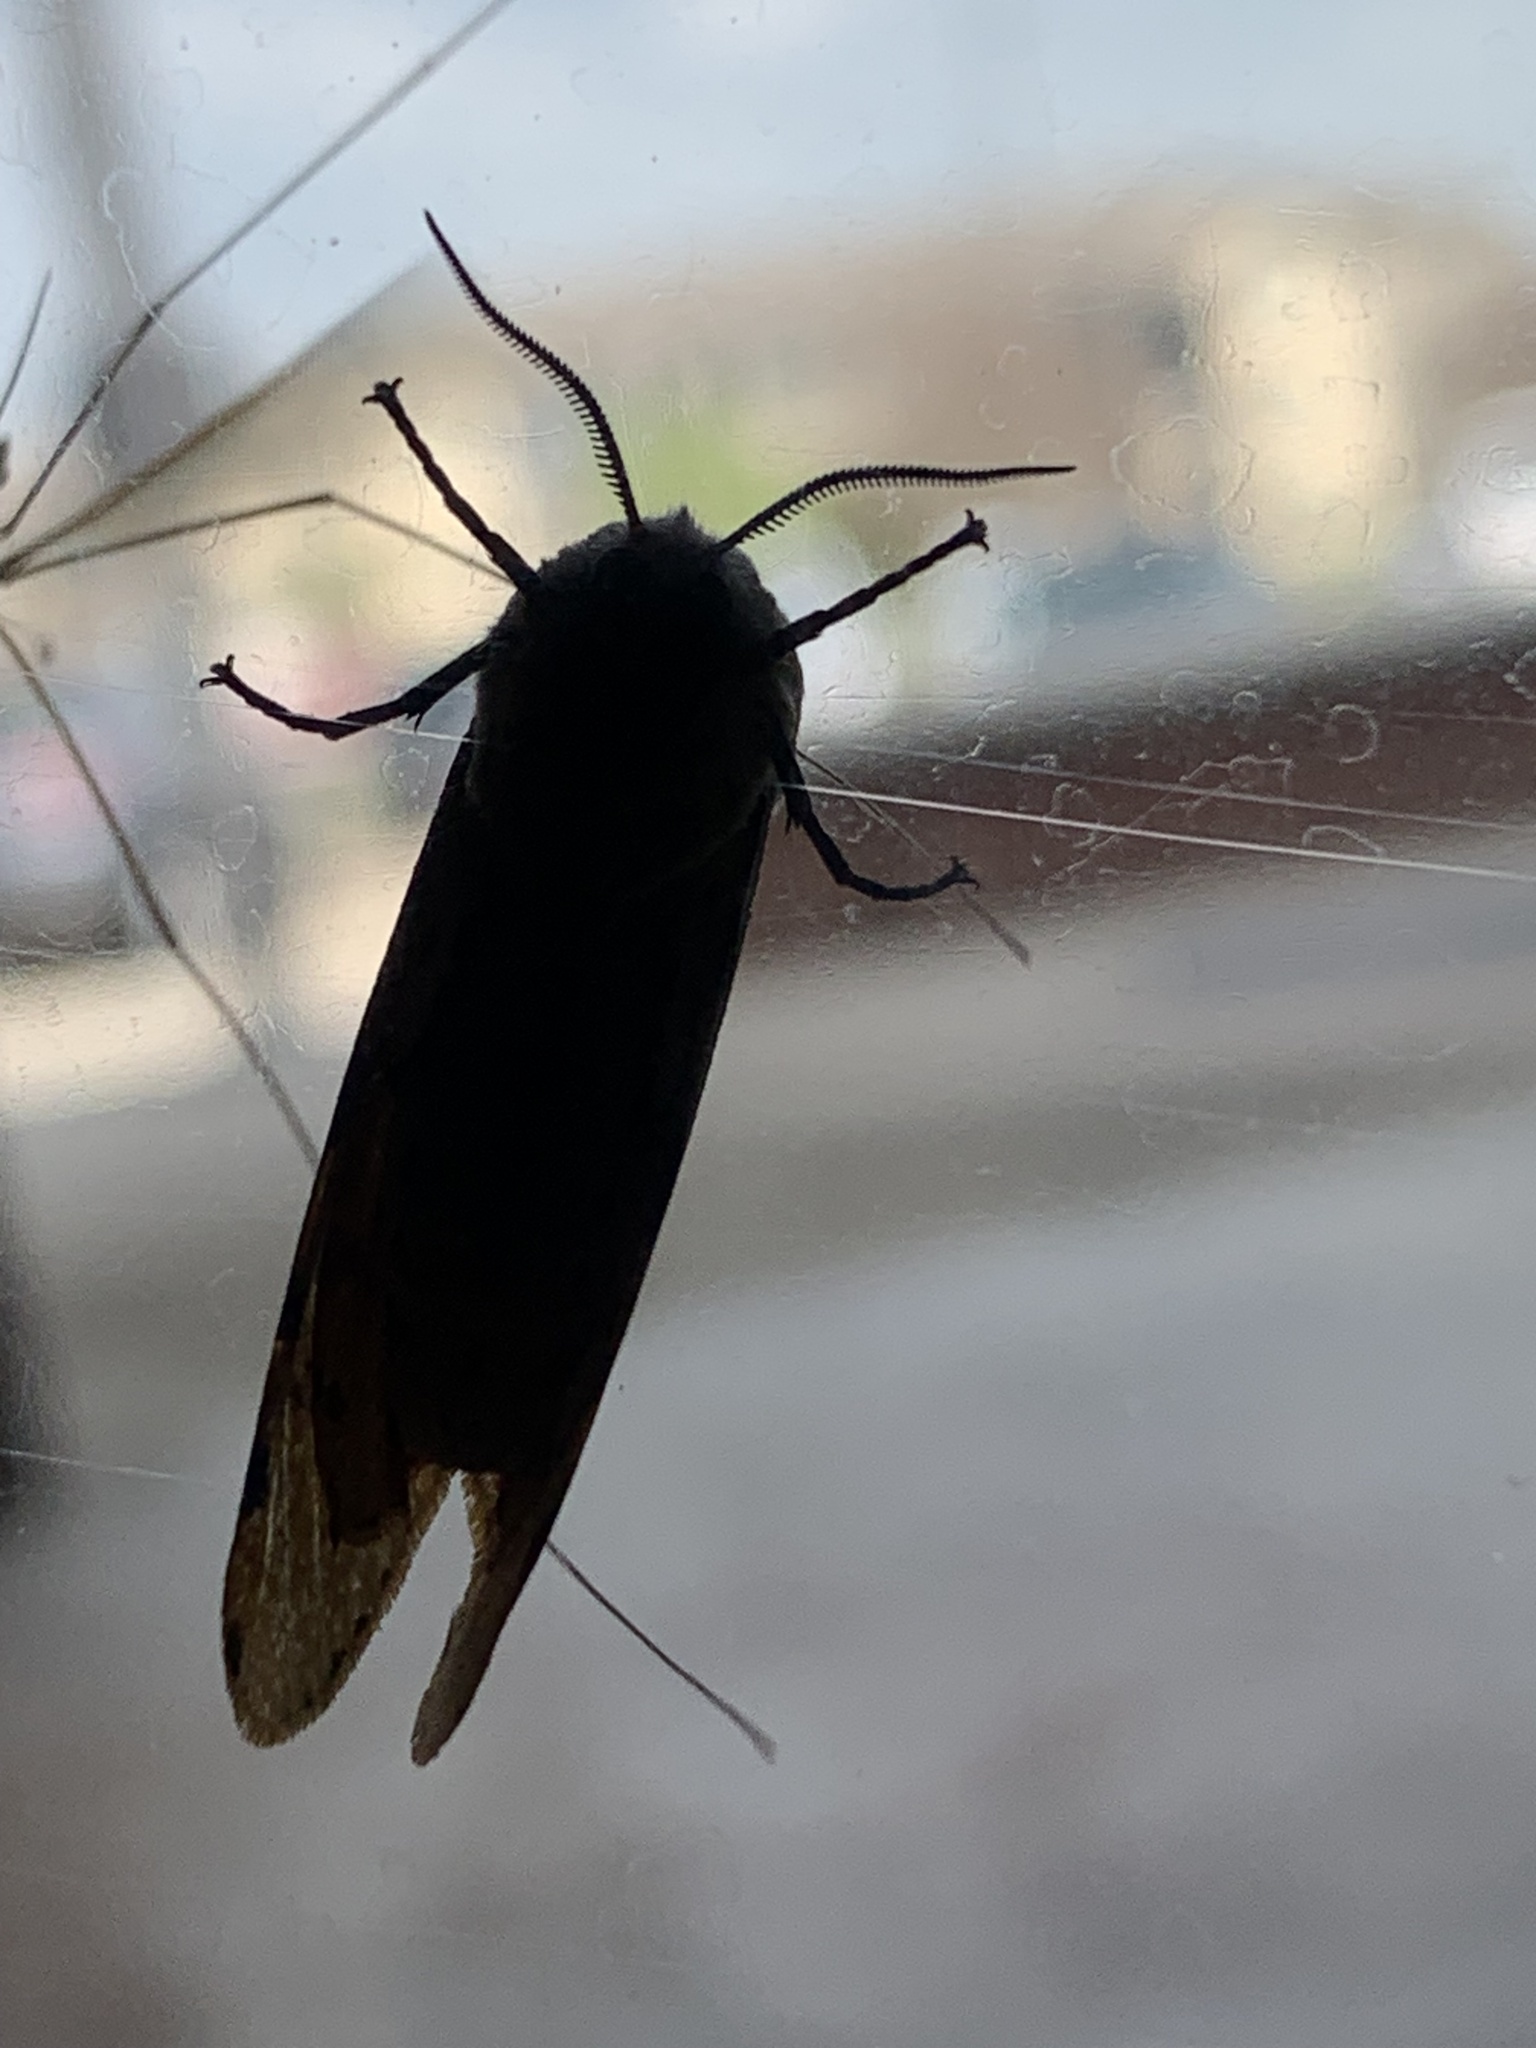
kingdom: Animalia
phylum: Arthropoda
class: Insecta
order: Lepidoptera
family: Erebidae
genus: Estigmene
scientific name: Estigmene acrea
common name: Salt marsh moth
